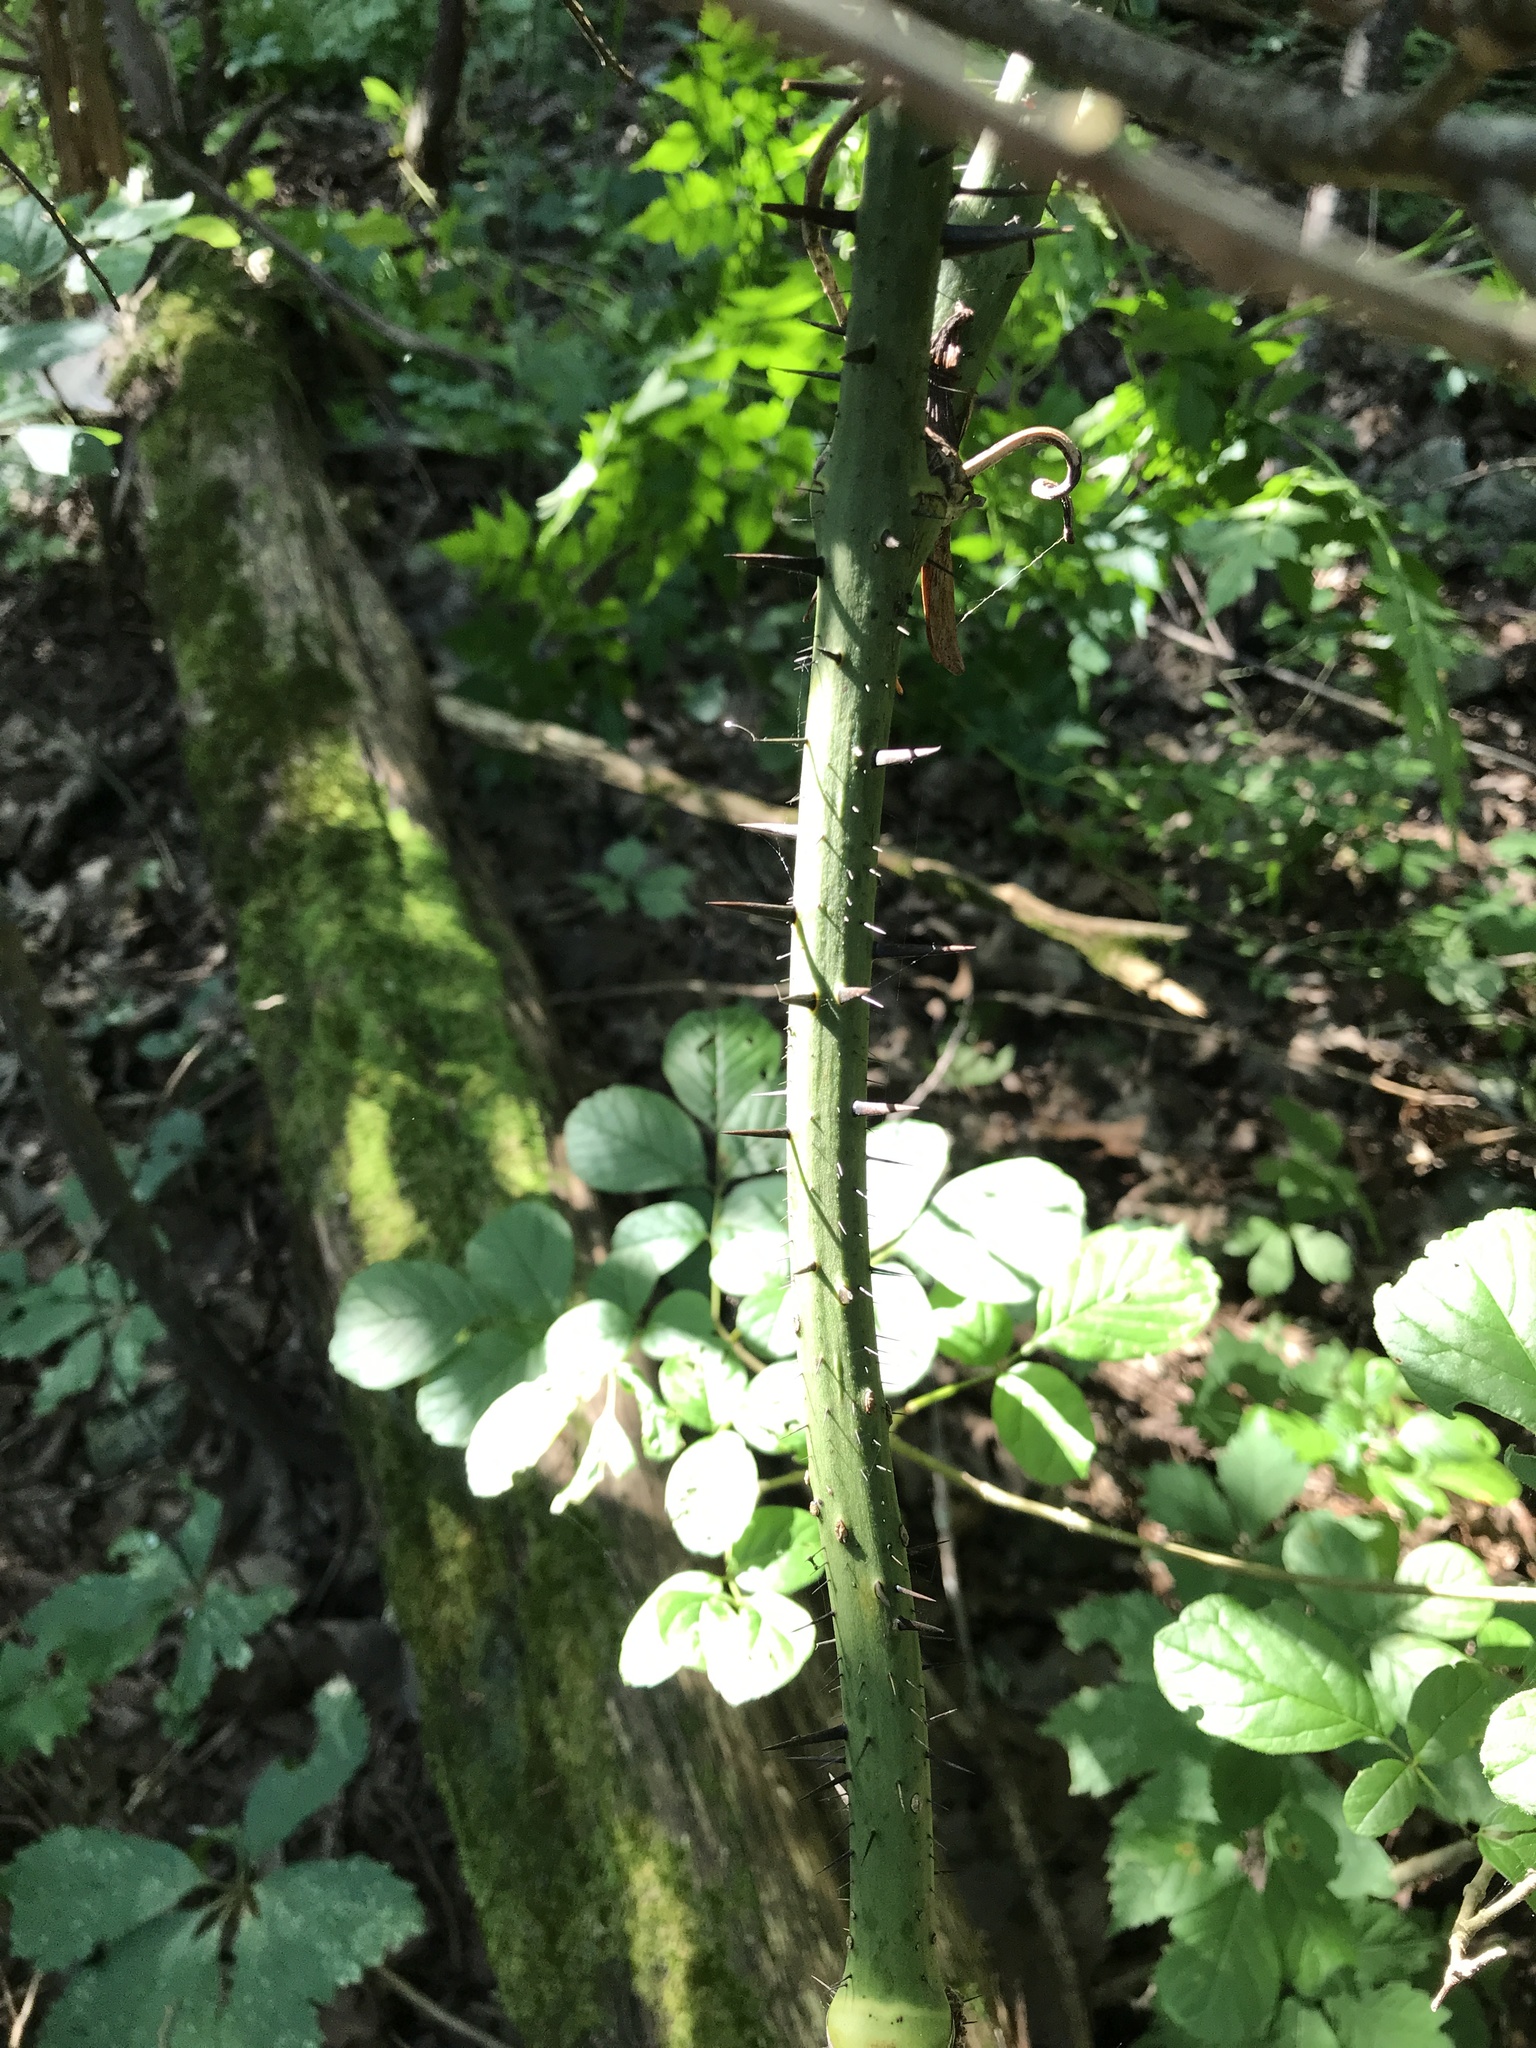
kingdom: Plantae
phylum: Tracheophyta
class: Liliopsida
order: Liliales
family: Smilacaceae
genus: Smilax
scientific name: Smilax tamnoides
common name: Hellfetter
